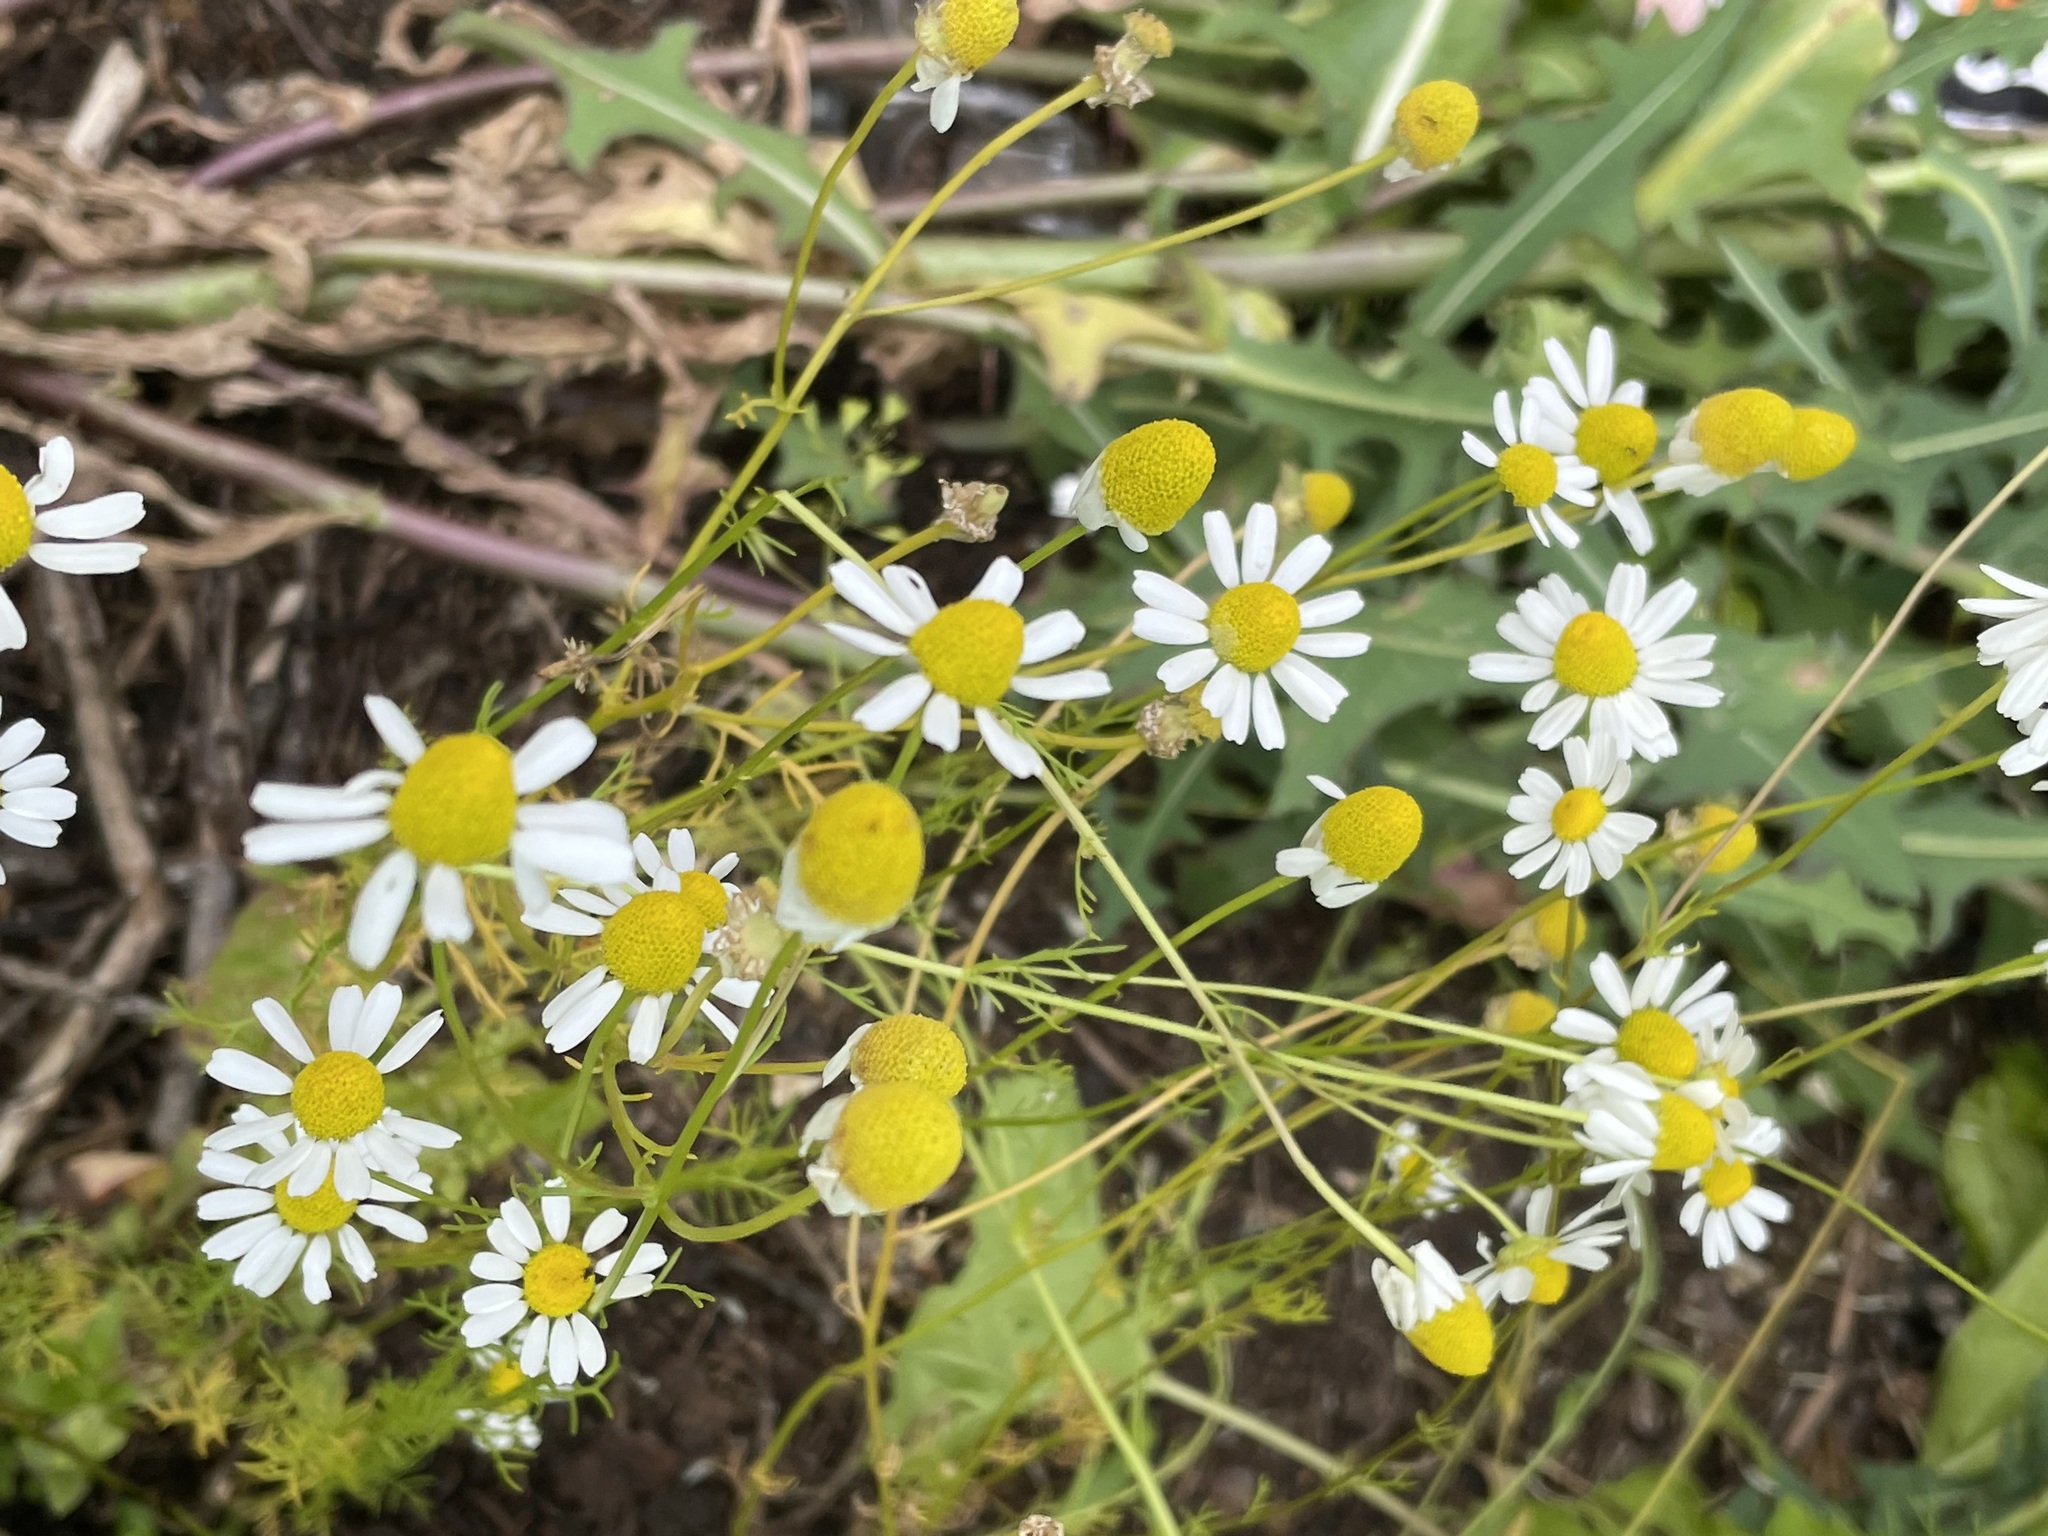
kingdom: Plantae
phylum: Tracheophyta
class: Magnoliopsida
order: Asterales
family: Asteraceae
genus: Matricaria
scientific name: Matricaria chamomilla
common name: Scented mayweed
